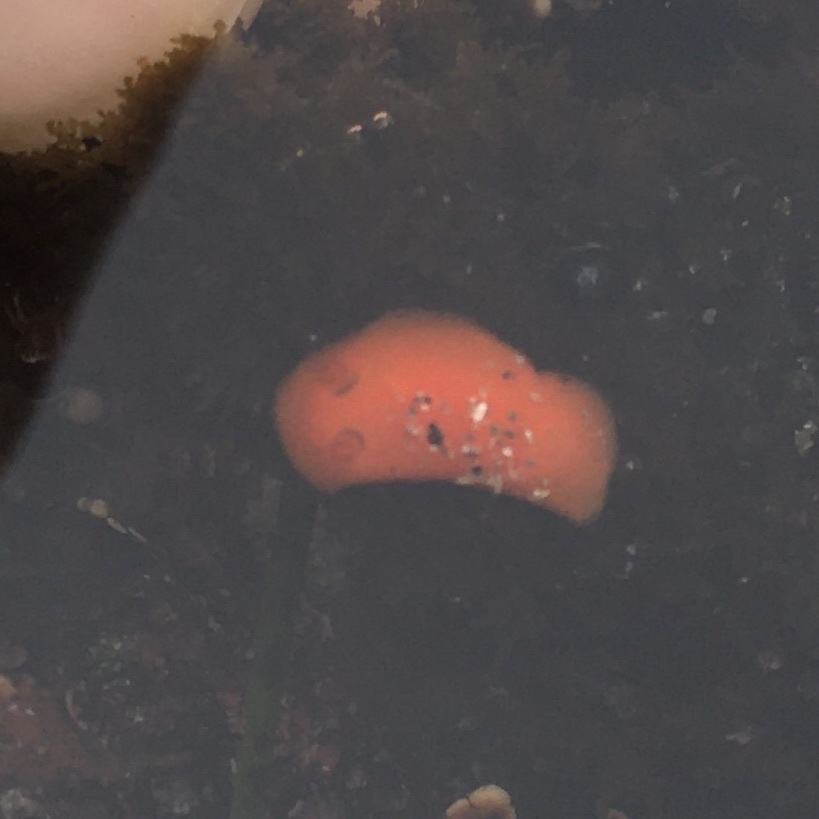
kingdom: Animalia
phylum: Mollusca
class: Gastropoda
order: Nudibranchia
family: Discodorididae
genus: Rostanga
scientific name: Rostanga pulchra
